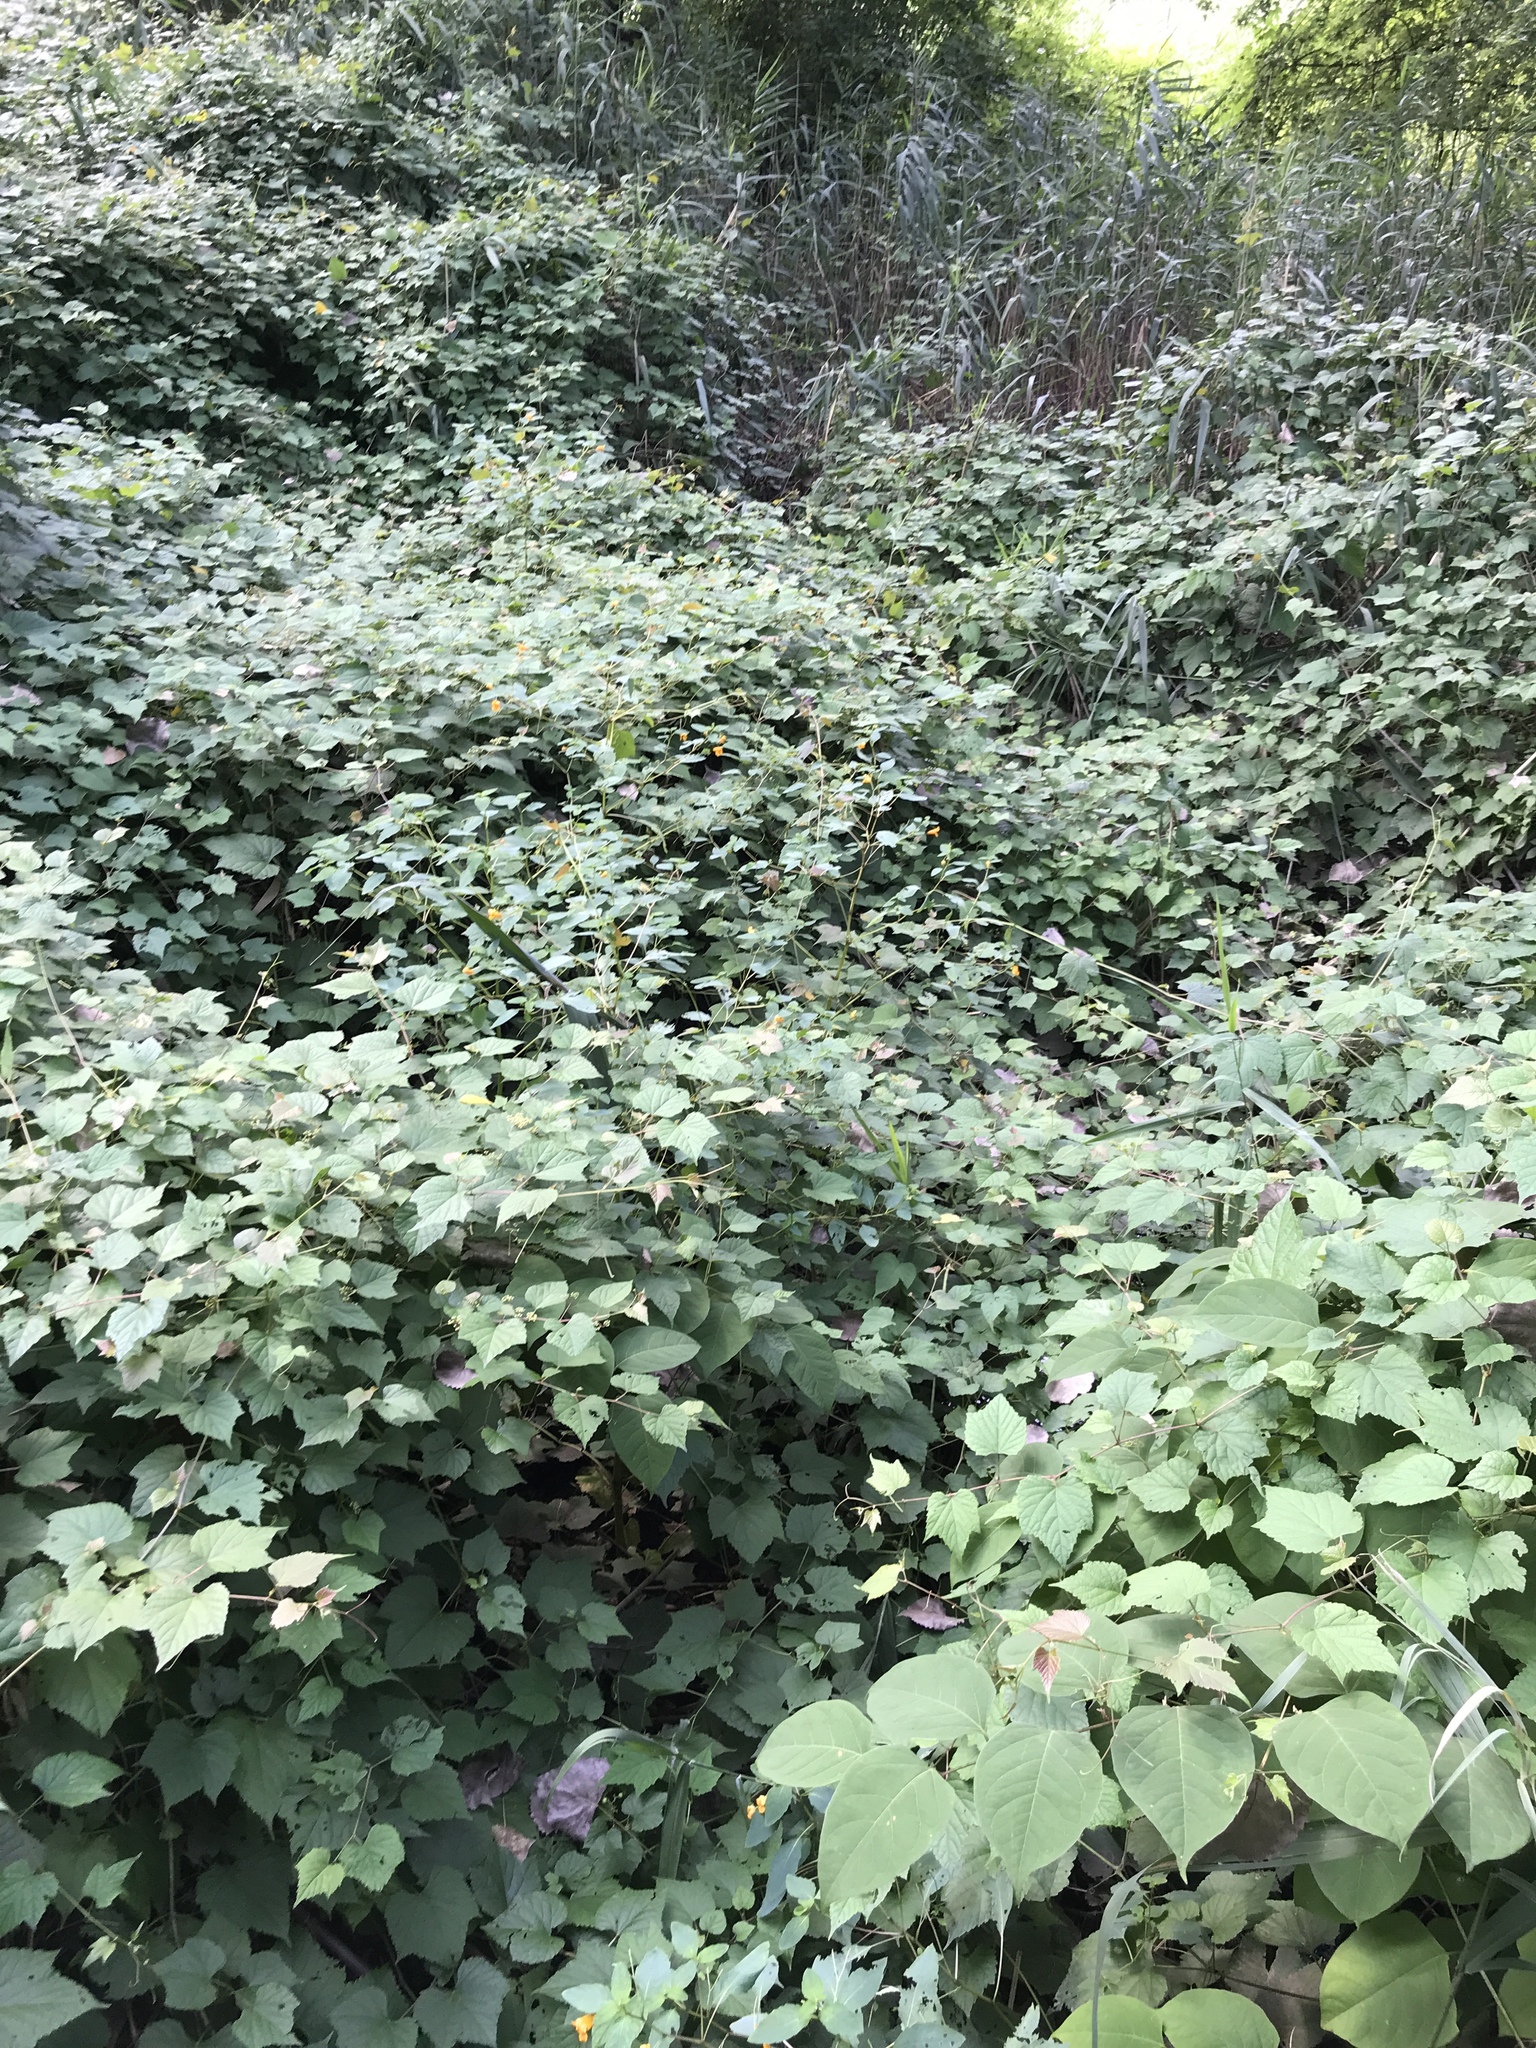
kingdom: Plantae
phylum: Tracheophyta
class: Magnoliopsida
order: Vitales
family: Vitaceae
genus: Ampelopsis
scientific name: Ampelopsis glandulosa
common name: Amur peppervine
